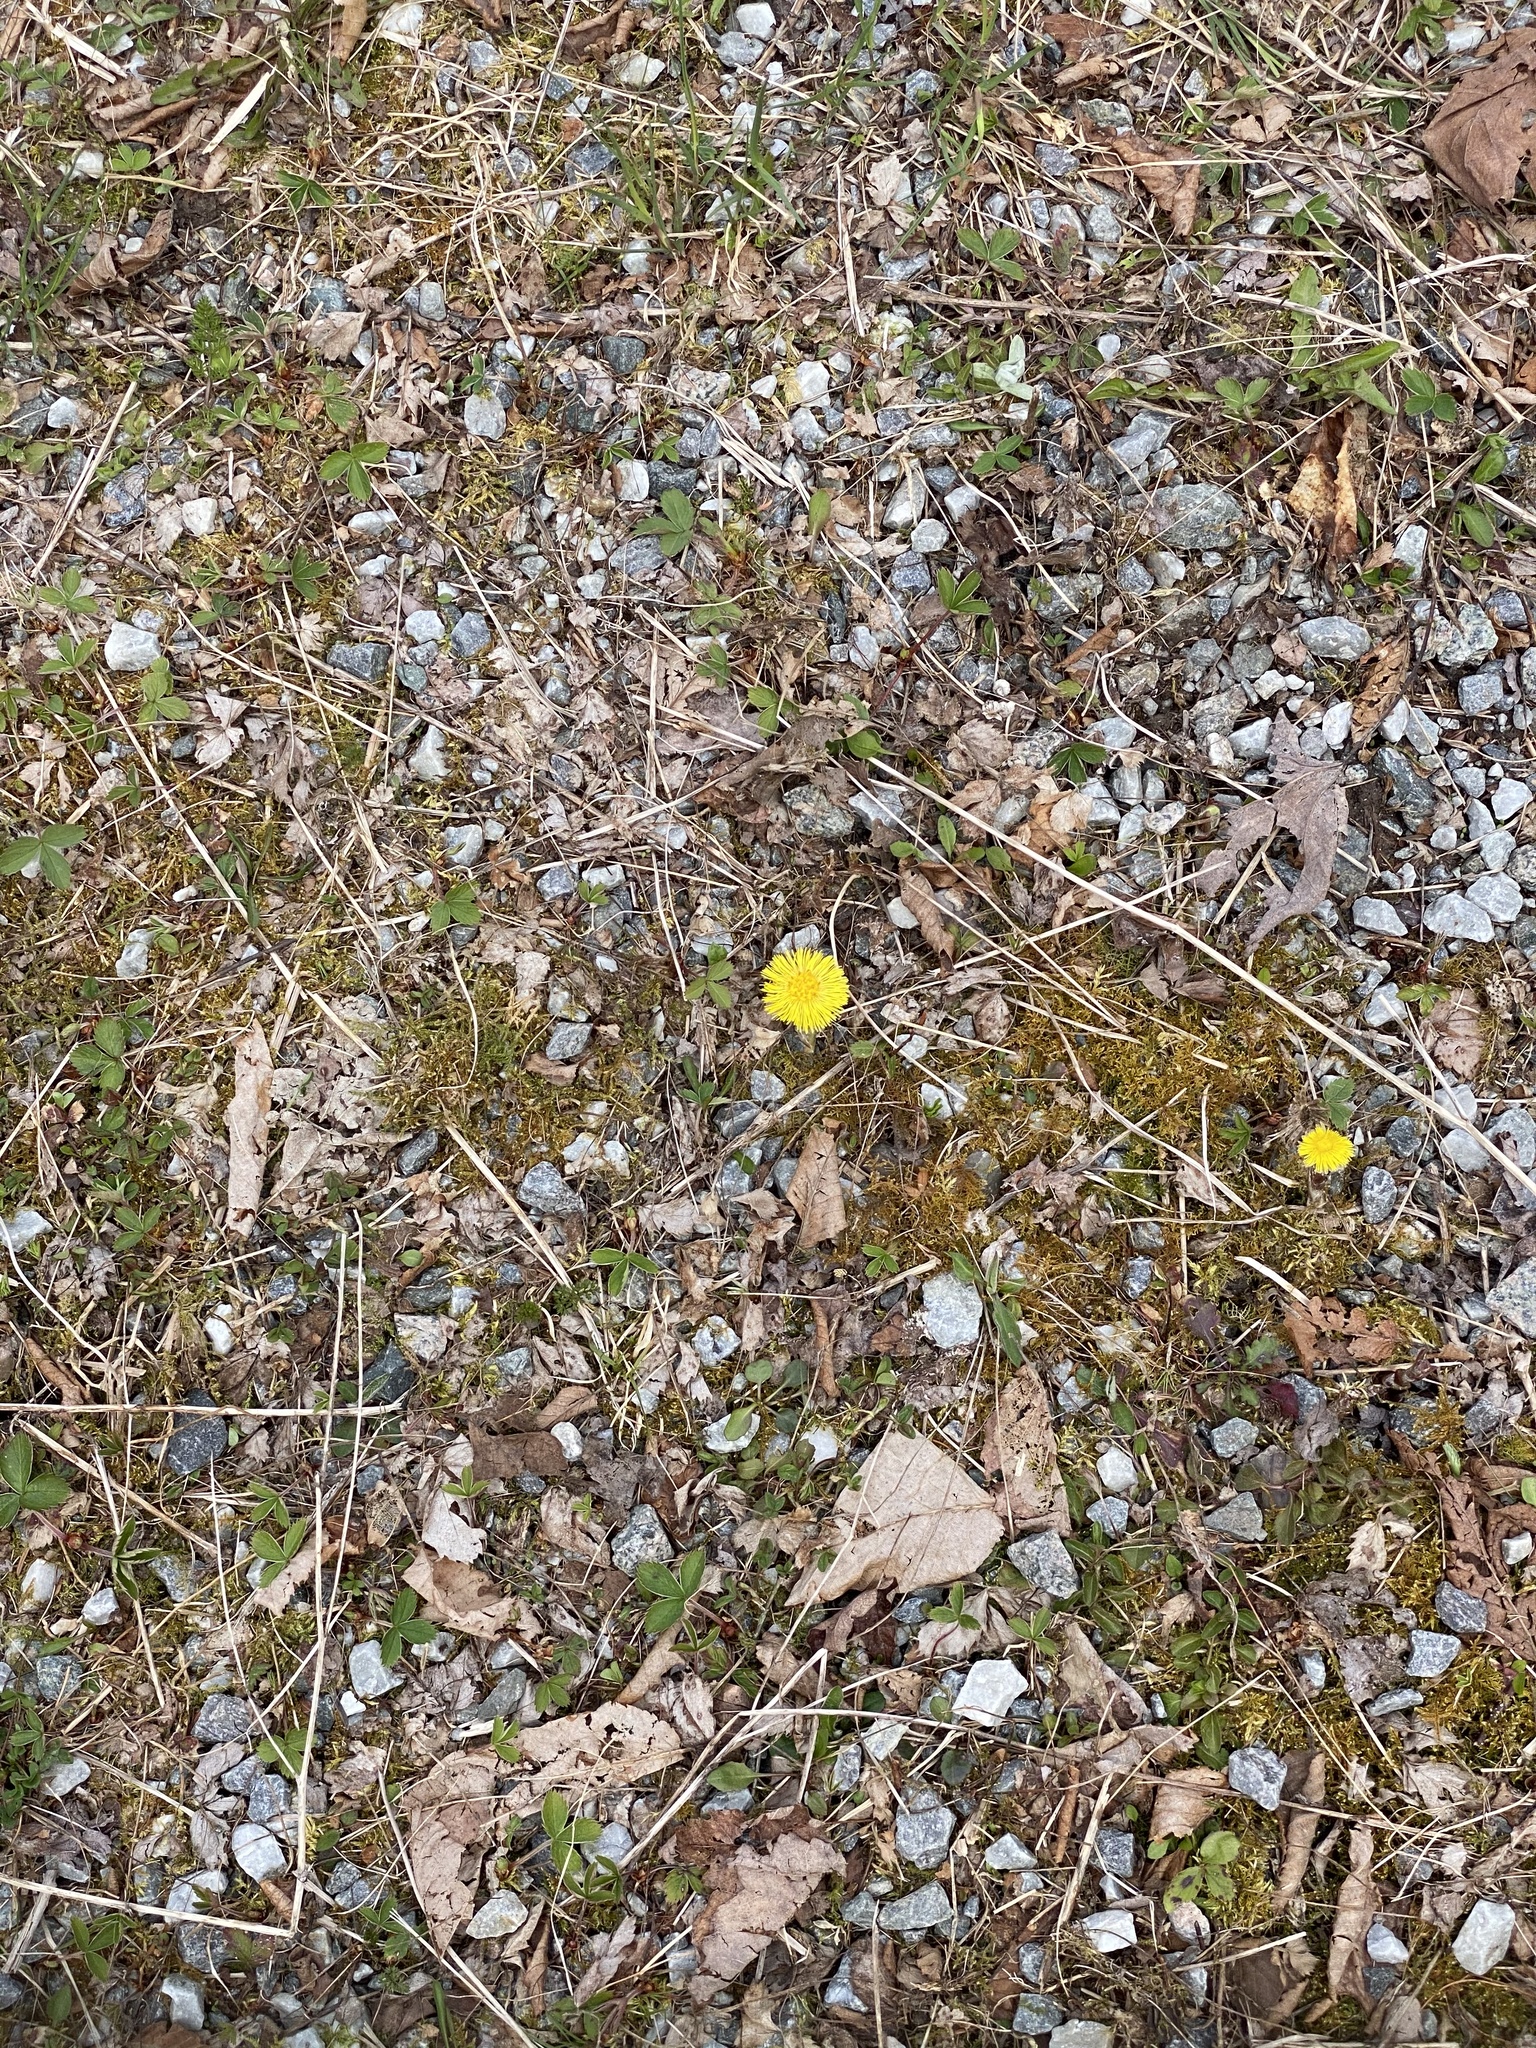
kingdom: Plantae
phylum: Tracheophyta
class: Magnoliopsida
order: Asterales
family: Asteraceae
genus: Tussilago
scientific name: Tussilago farfara
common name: Coltsfoot
